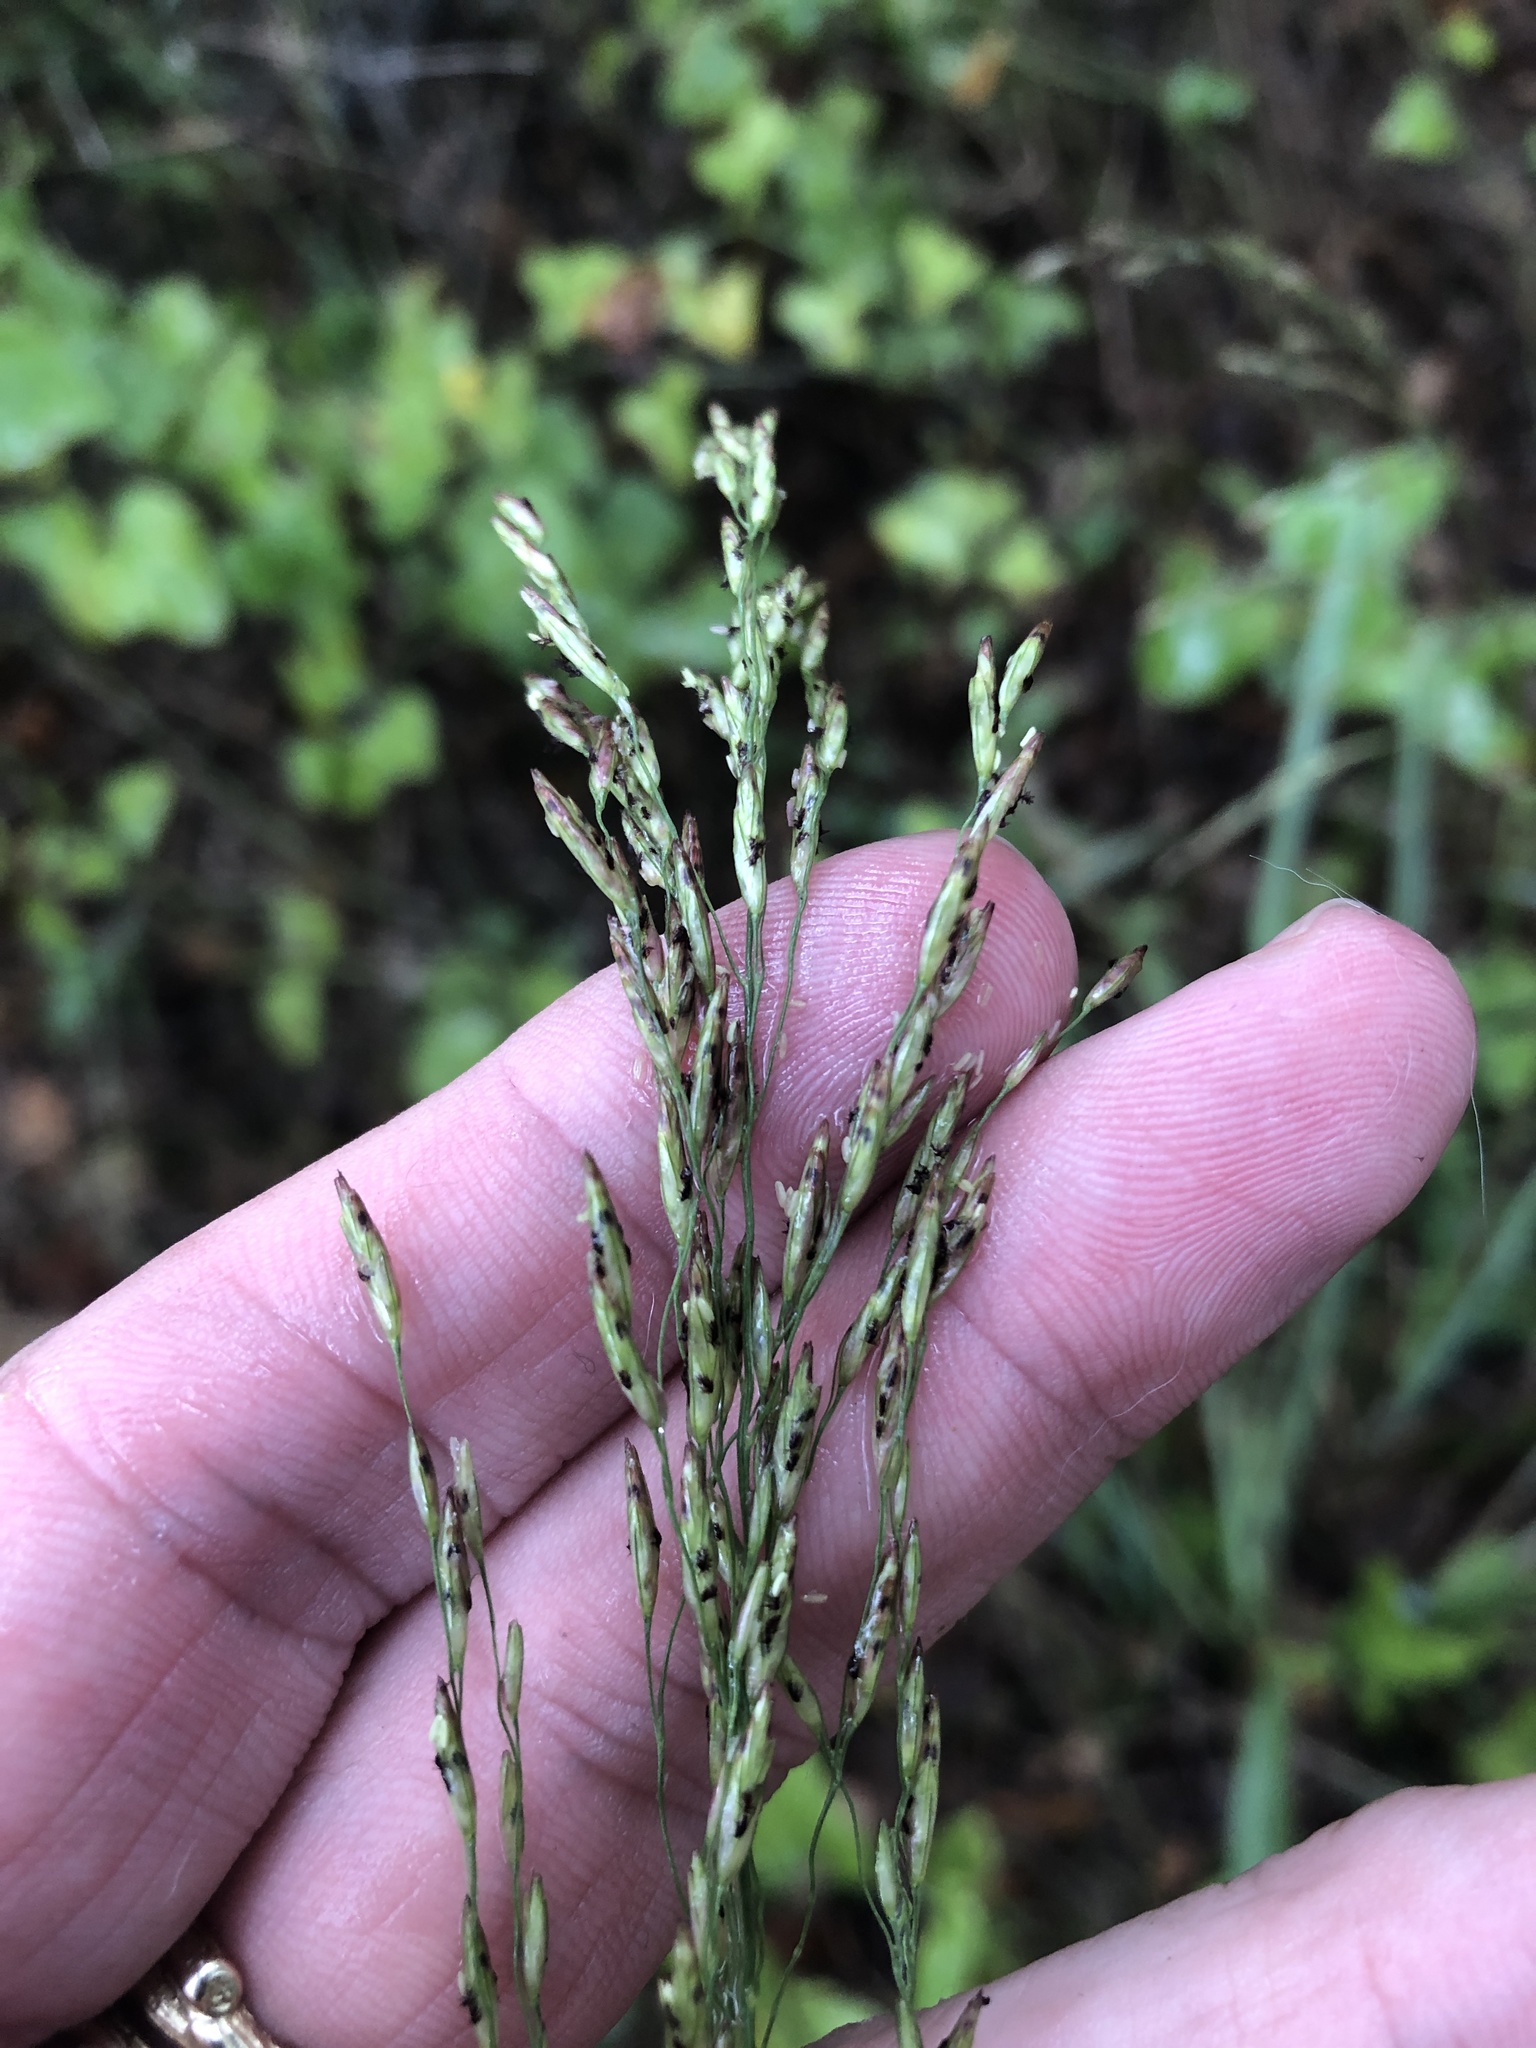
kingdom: Plantae
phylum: Tracheophyta
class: Liliopsida
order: Poales
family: Poaceae
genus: Tridens
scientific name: Tridens flavus
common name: Purpletop
